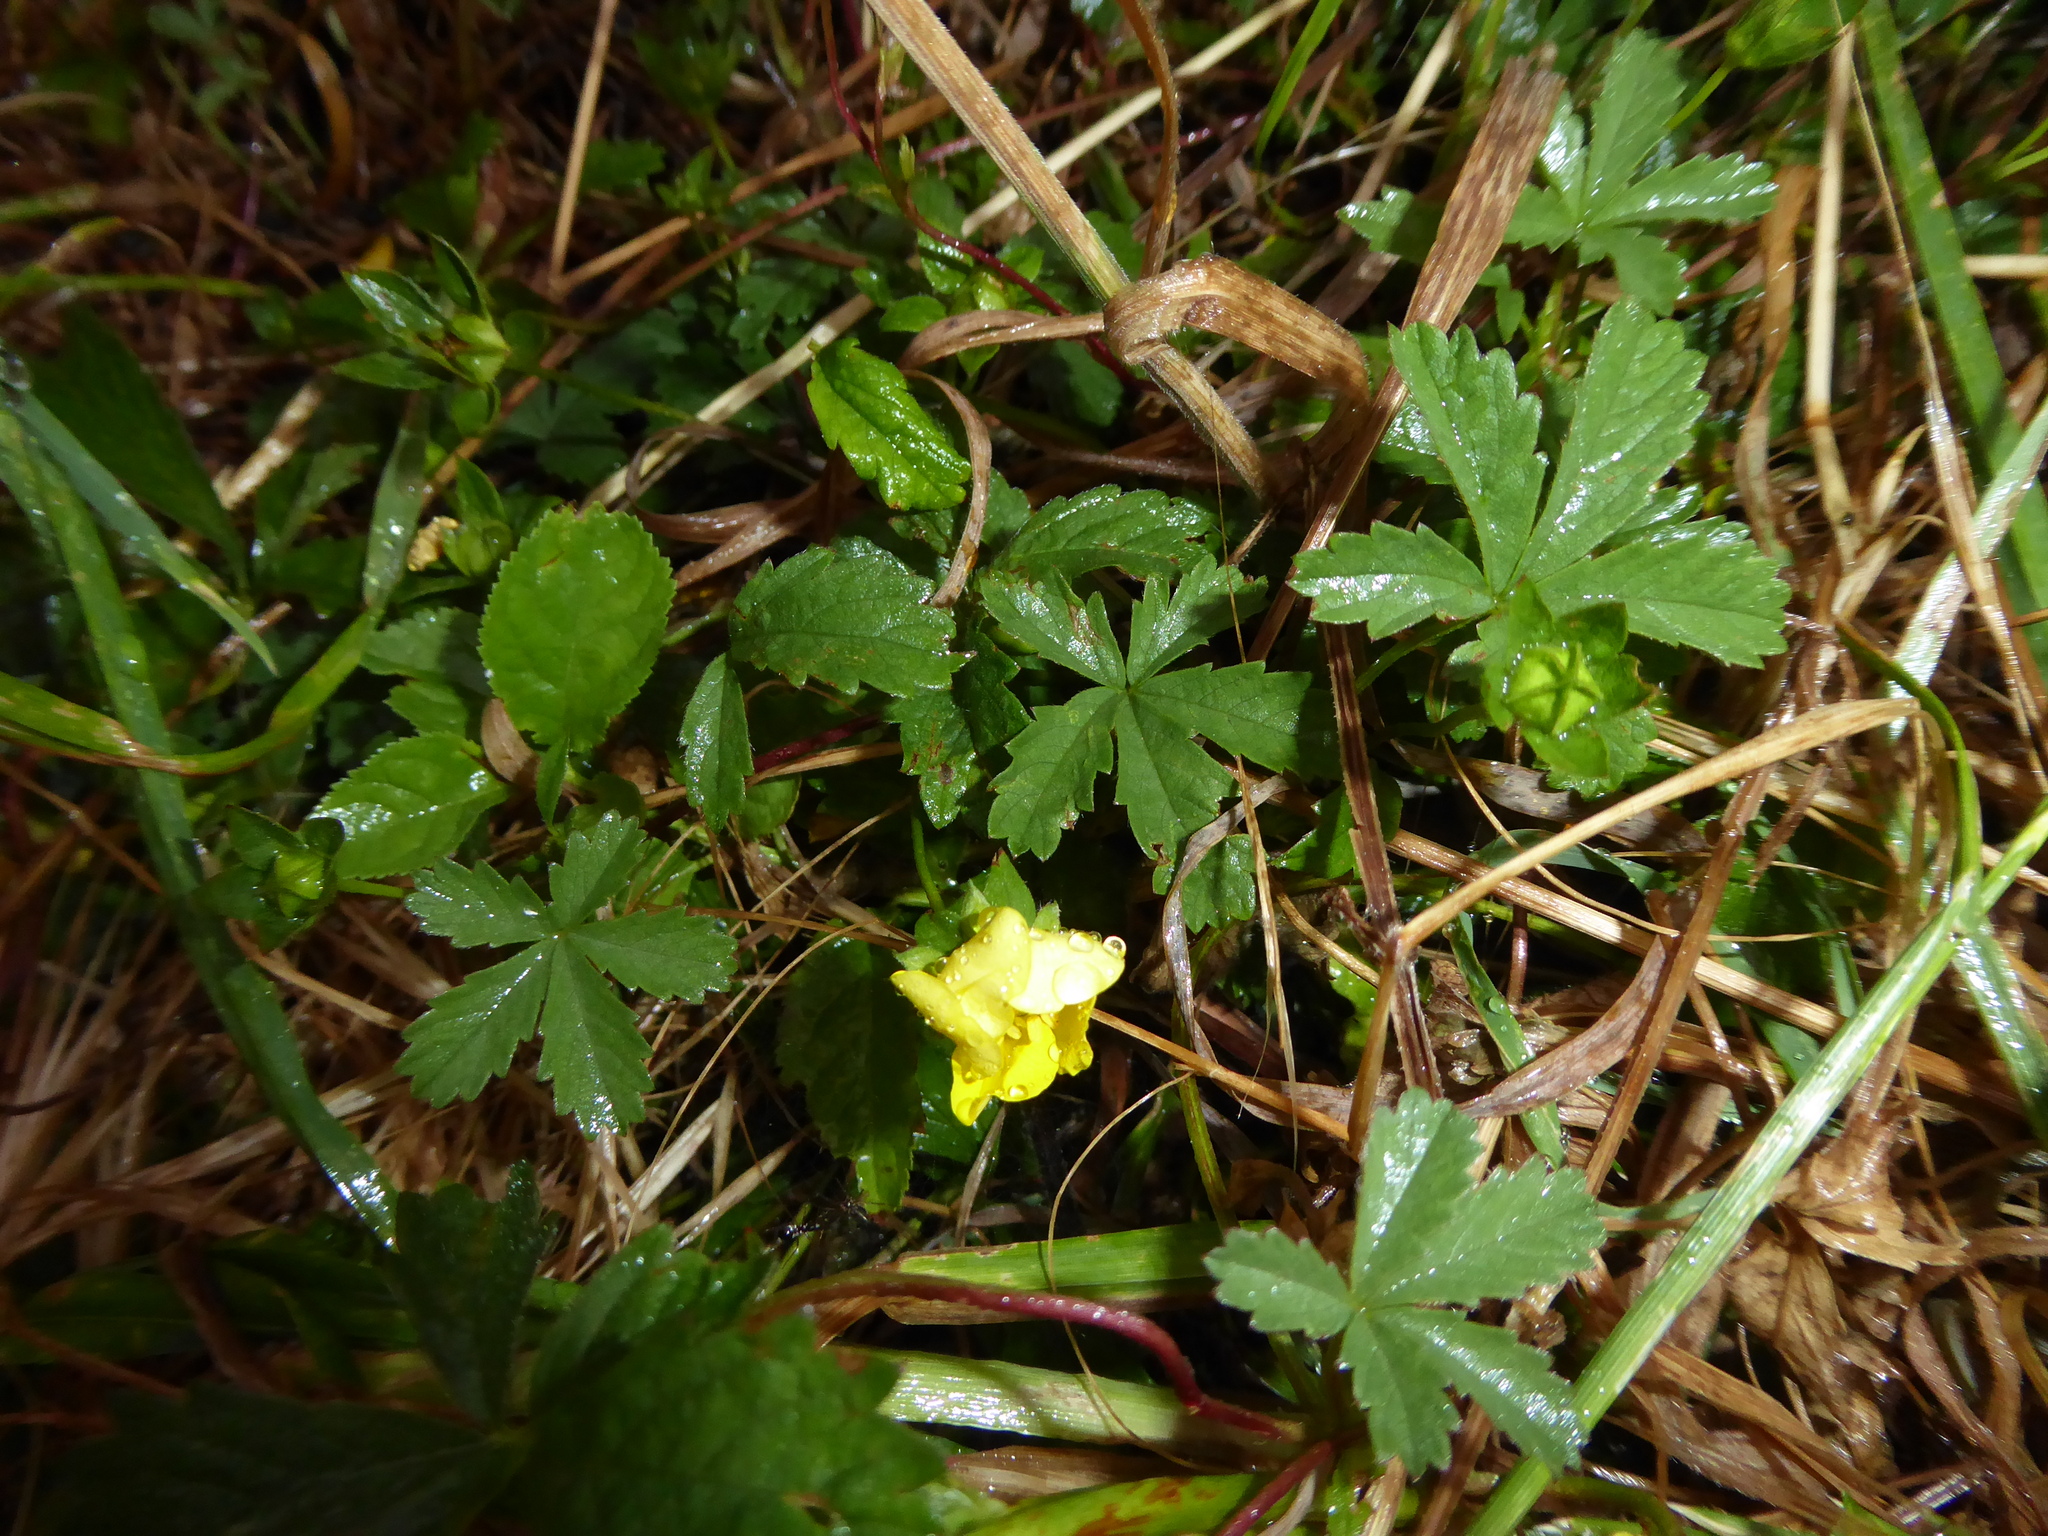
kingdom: Plantae
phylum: Tracheophyta
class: Magnoliopsida
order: Rosales
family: Rosaceae
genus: Potentilla
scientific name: Potentilla reptans
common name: Creeping cinquefoil
